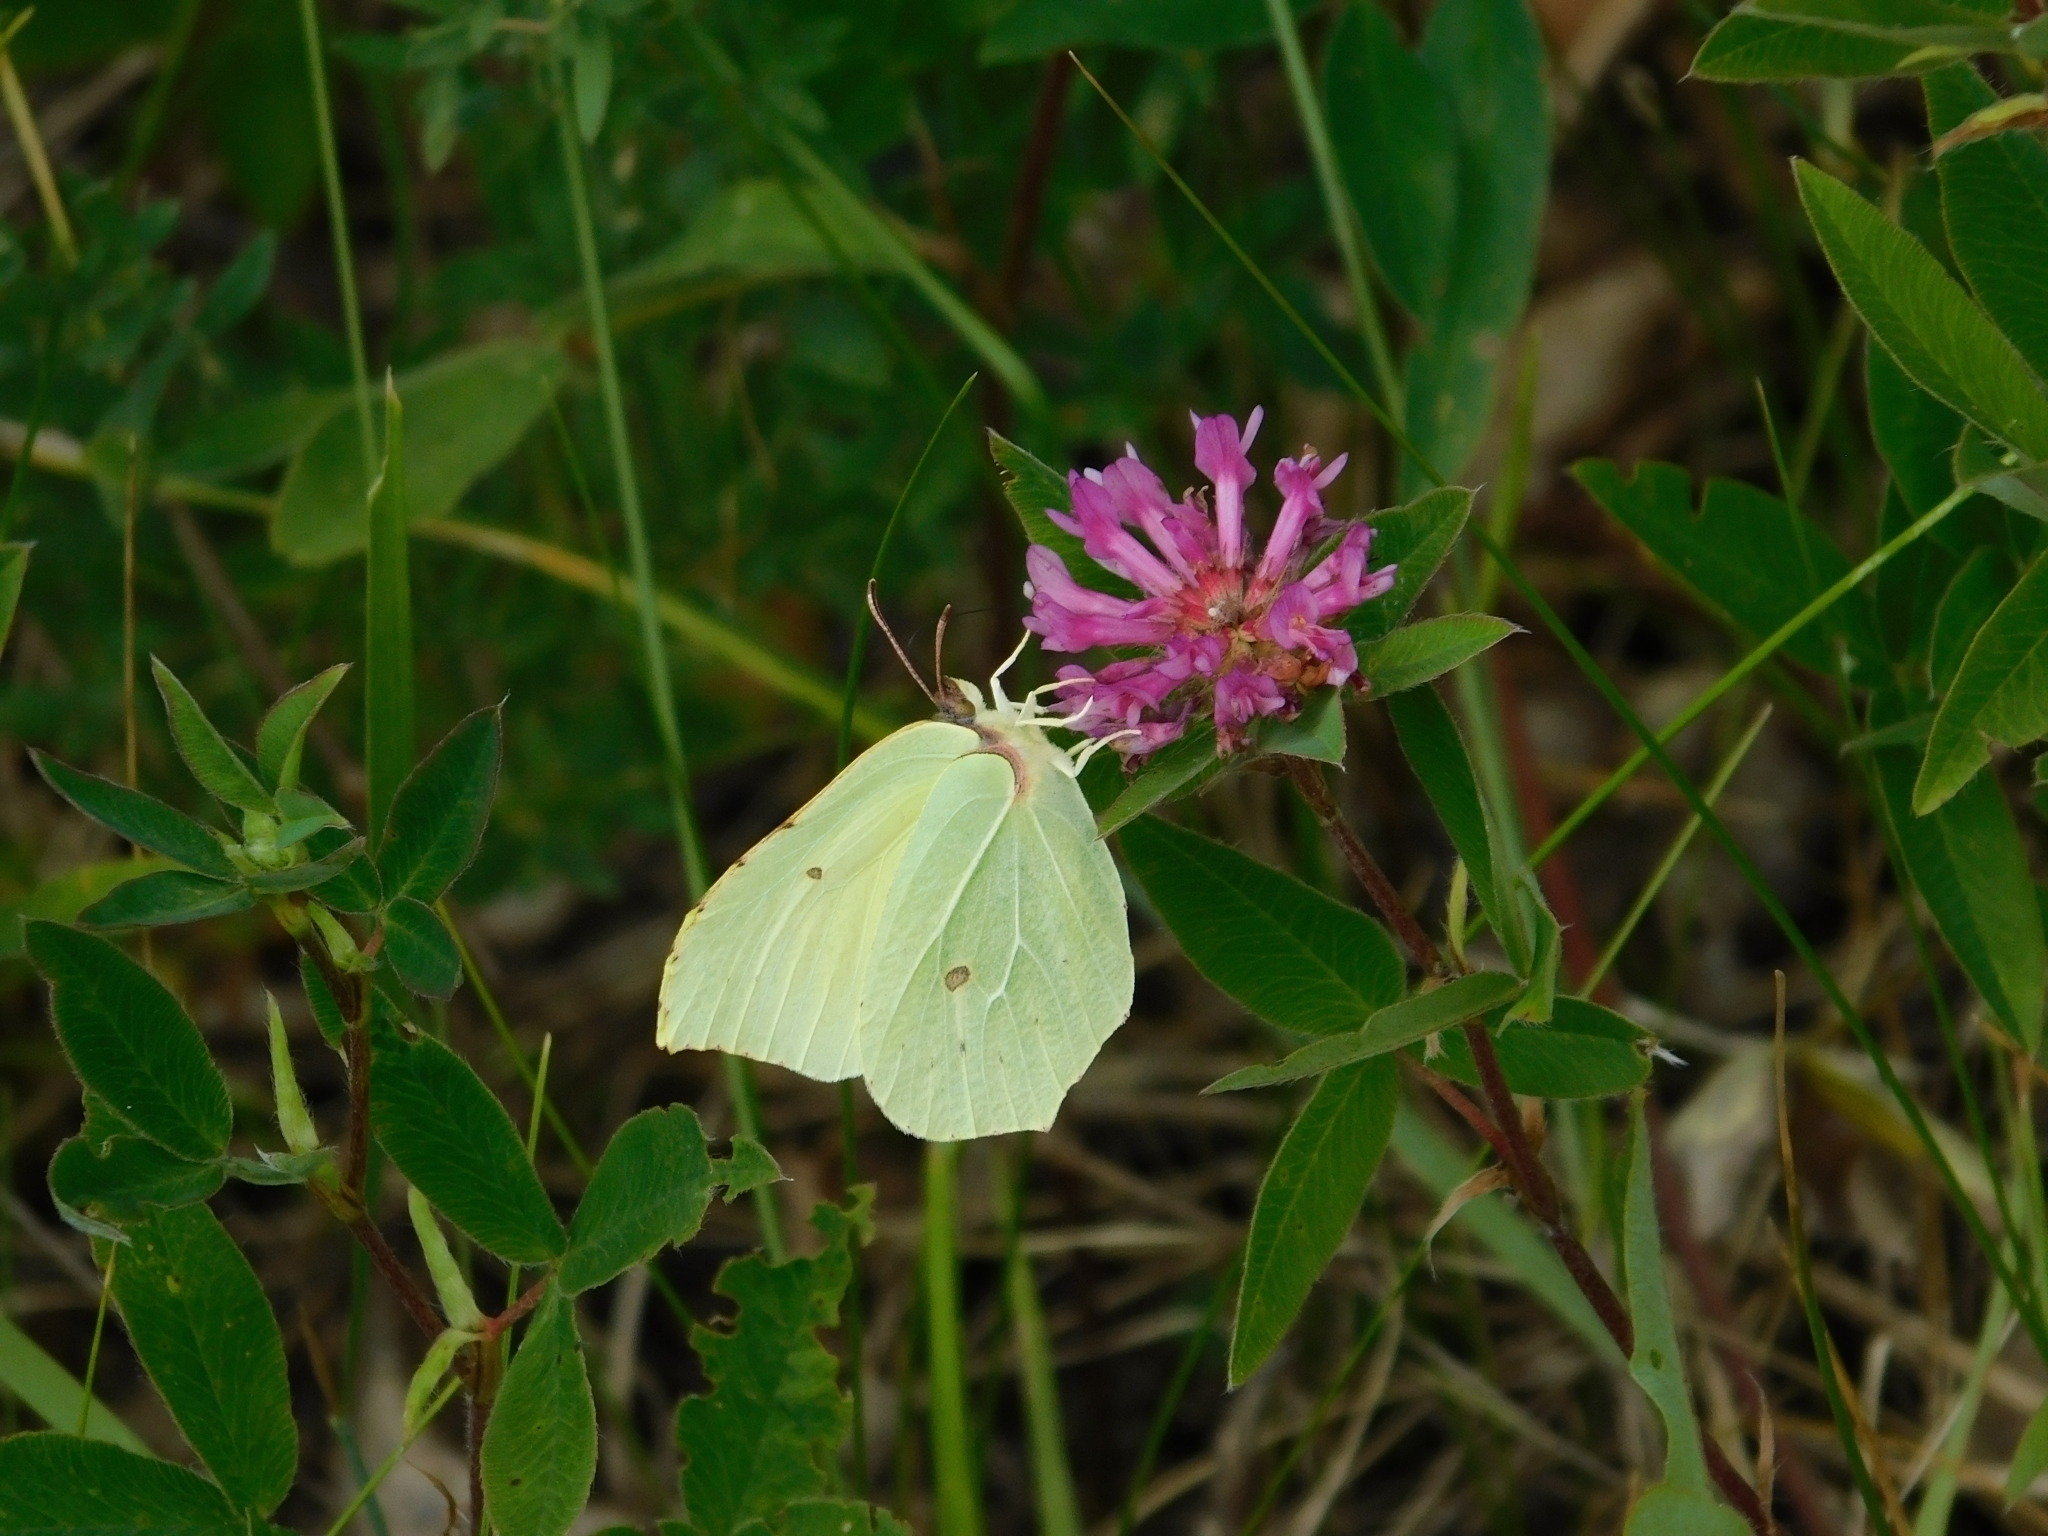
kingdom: Animalia
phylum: Arthropoda
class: Insecta
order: Lepidoptera
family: Pieridae
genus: Gonepteryx
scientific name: Gonepteryx rhamni
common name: Brimstone
